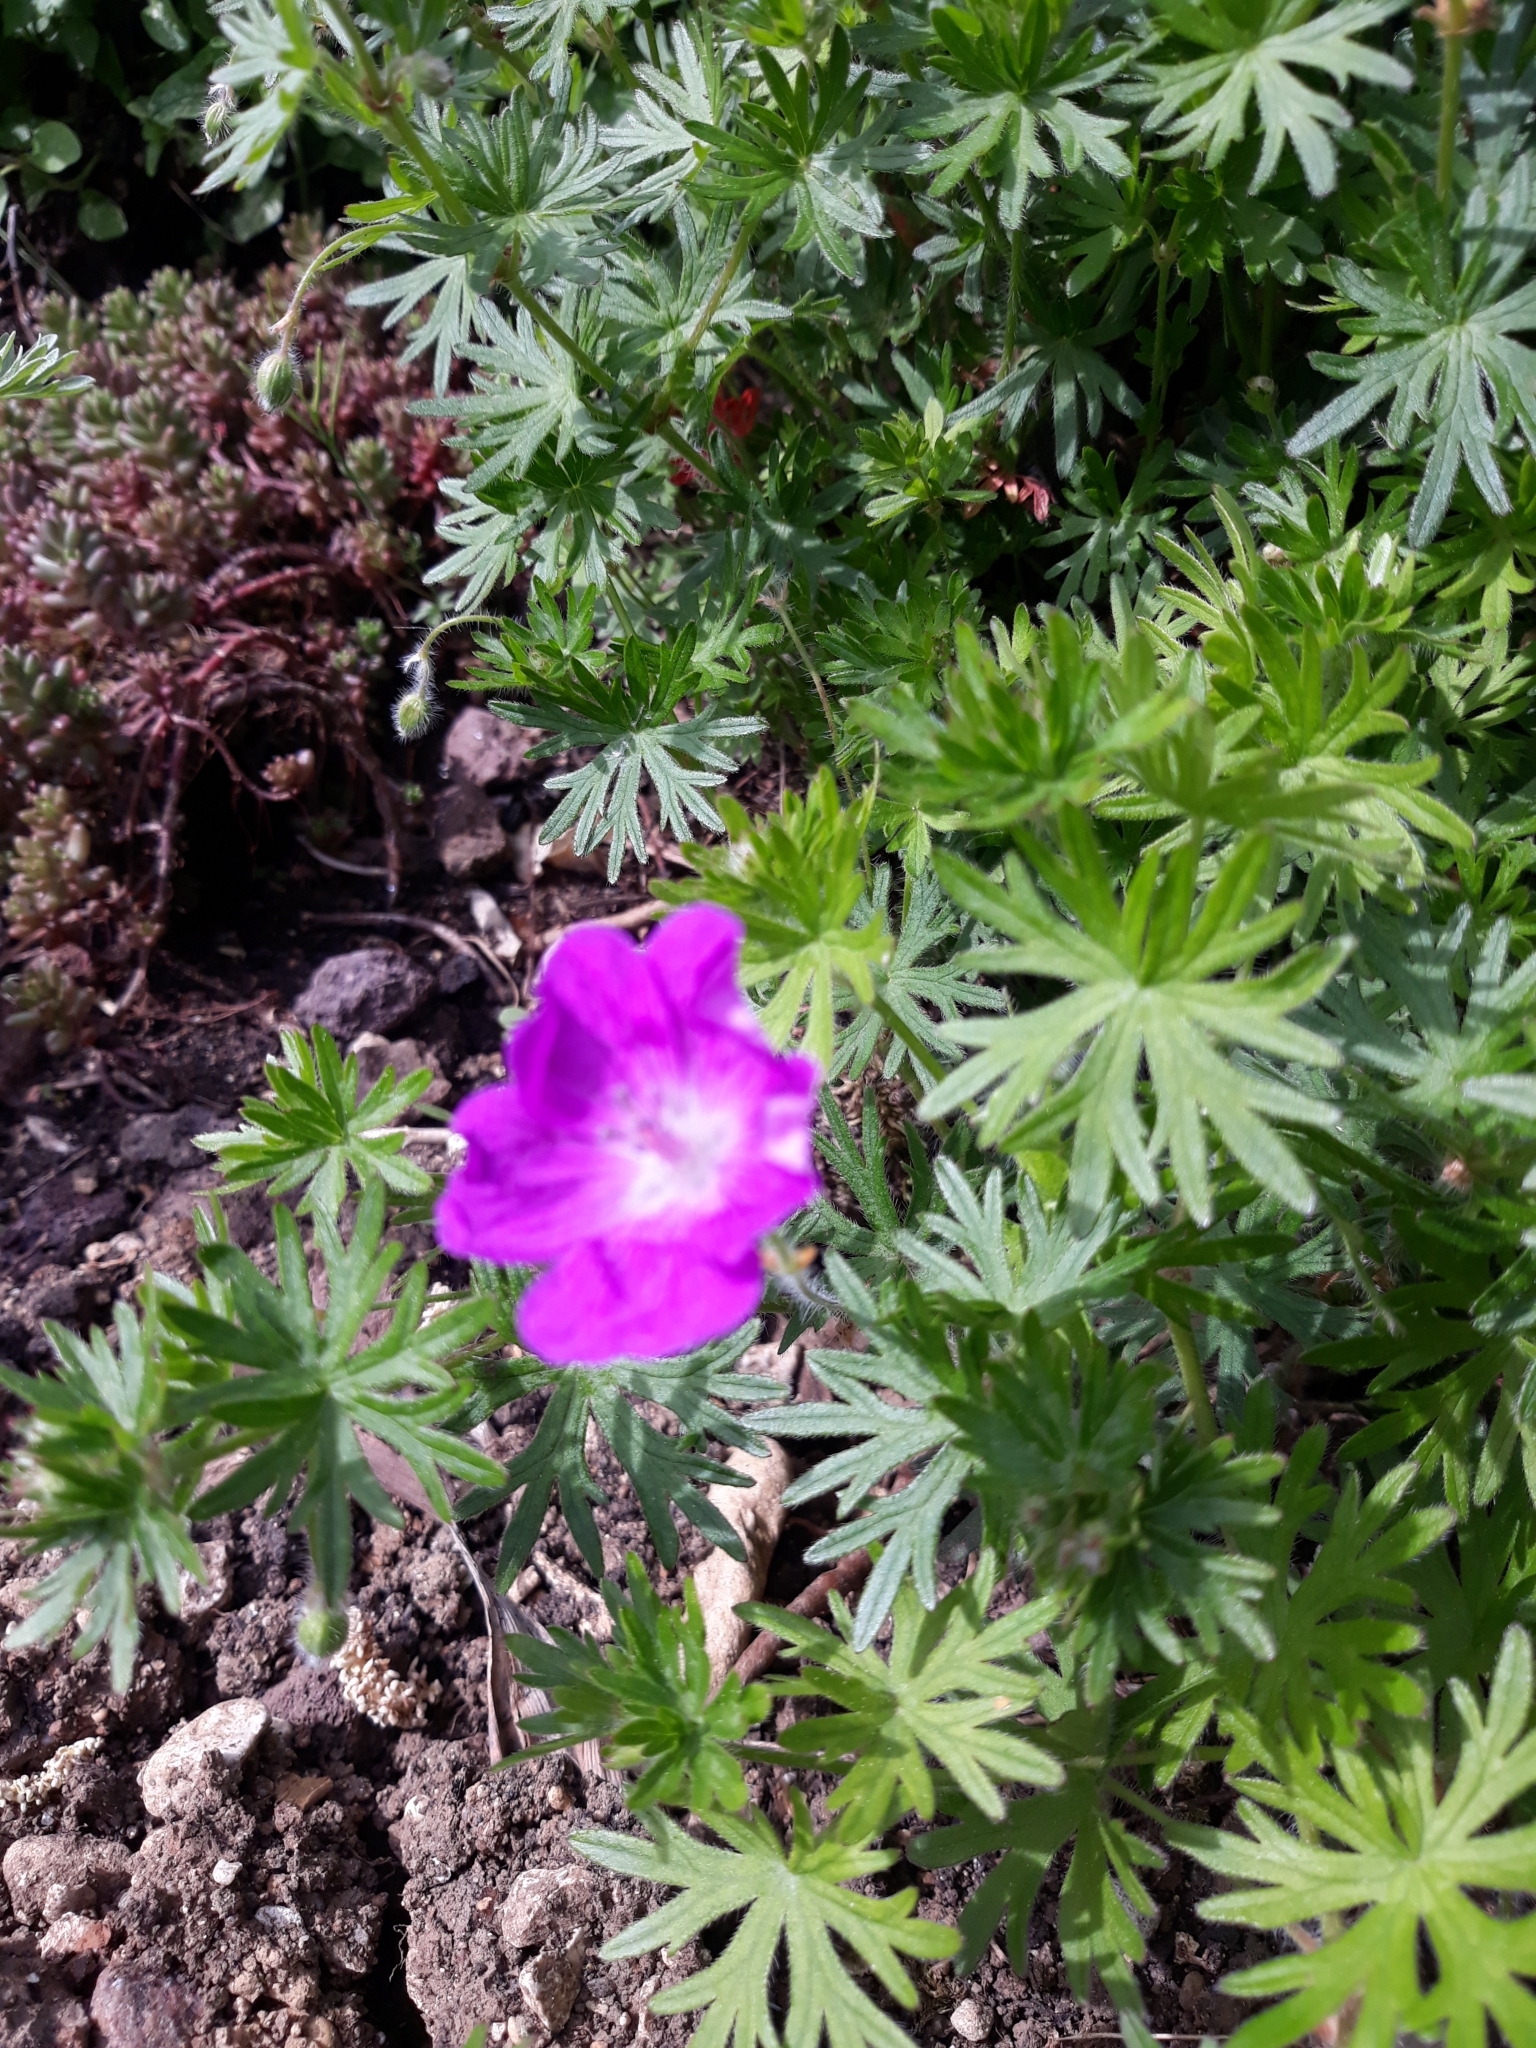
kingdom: Plantae
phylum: Tracheophyta
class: Magnoliopsida
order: Geraniales
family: Geraniaceae
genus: Geranium
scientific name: Geranium sanguineum
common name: Bloody crane's-bill
